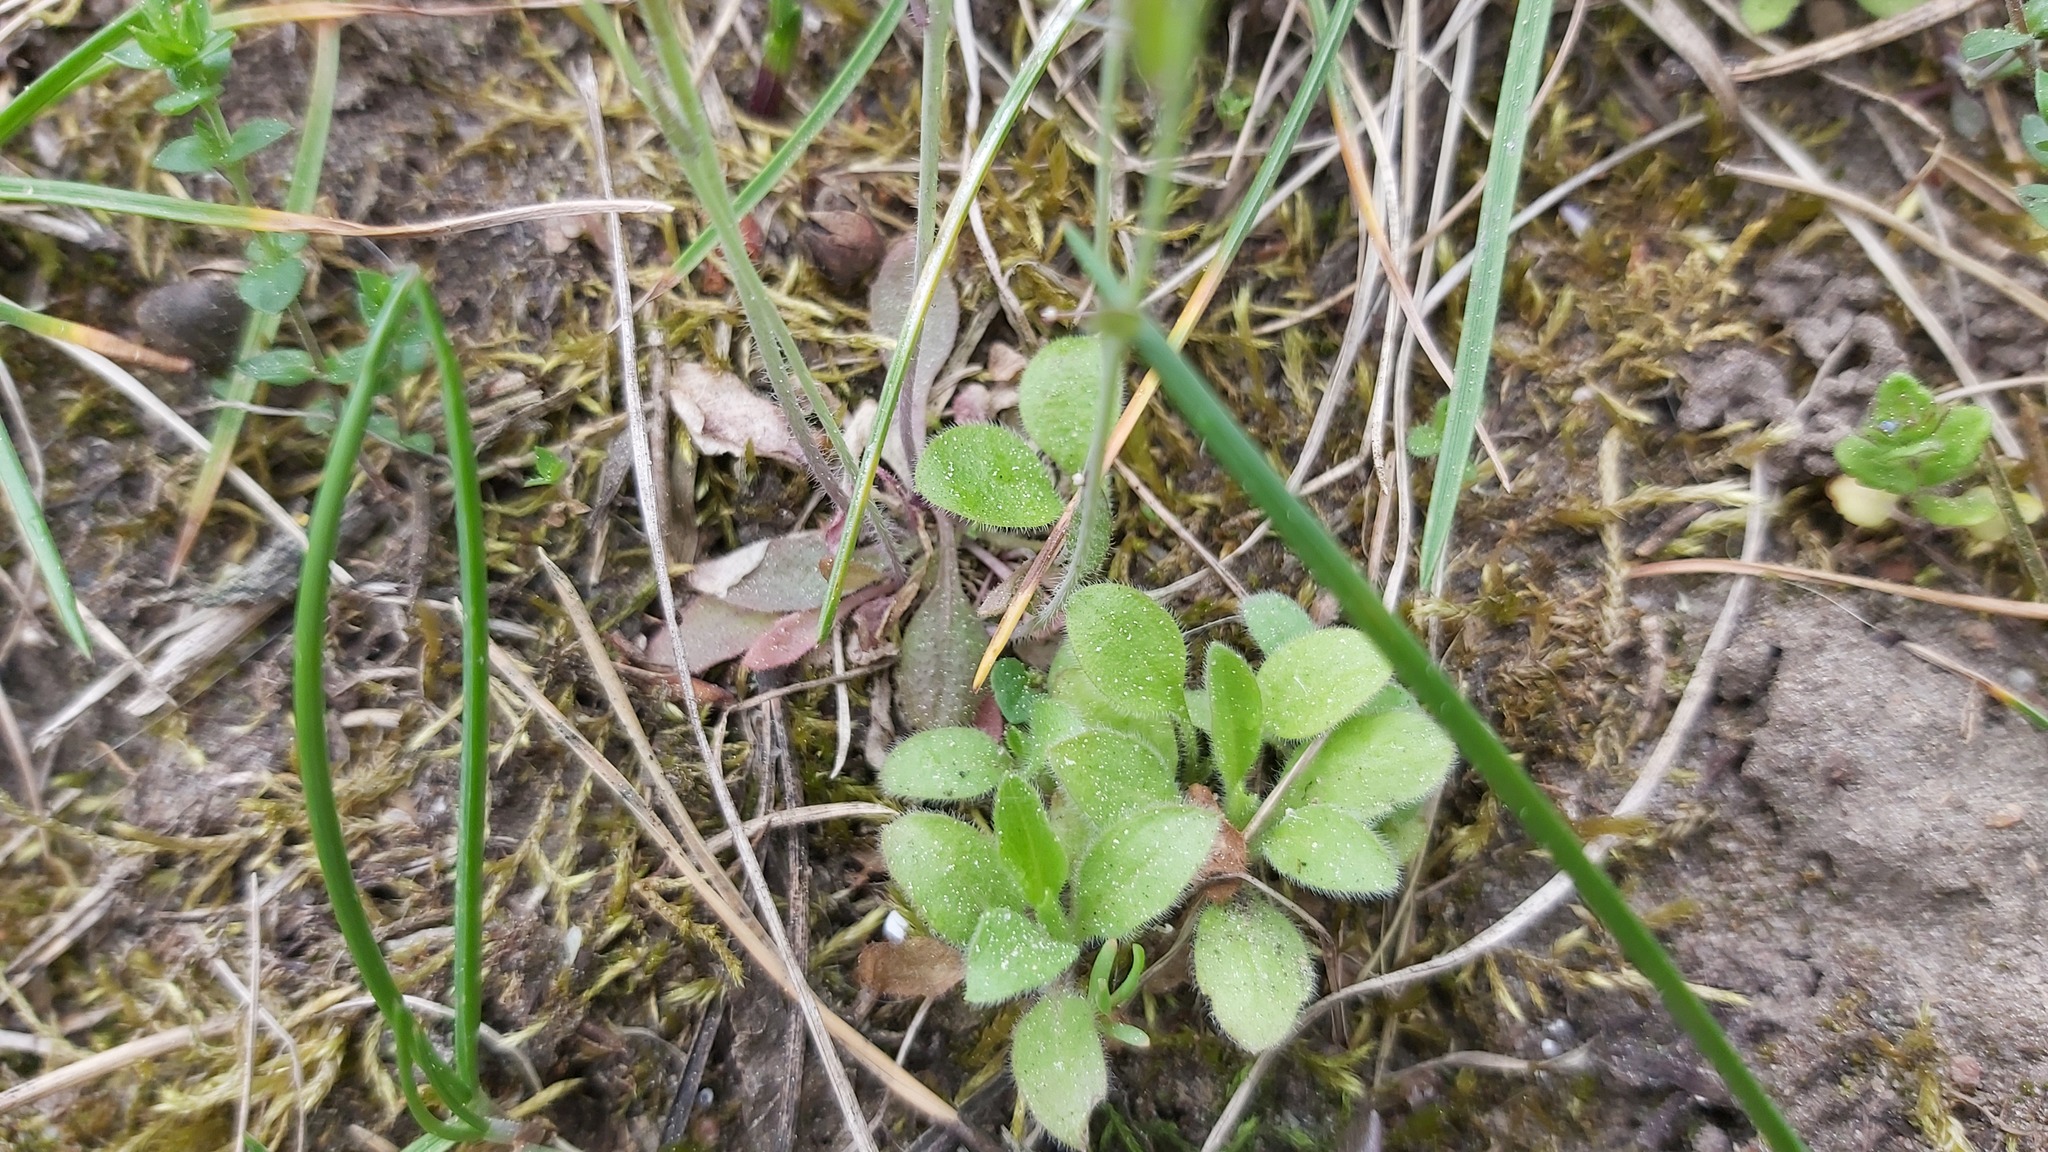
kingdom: Plantae
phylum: Tracheophyta
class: Magnoliopsida
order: Brassicales
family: Brassicaceae
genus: Arabidopsis
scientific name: Arabidopsis thaliana
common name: Thale cress
